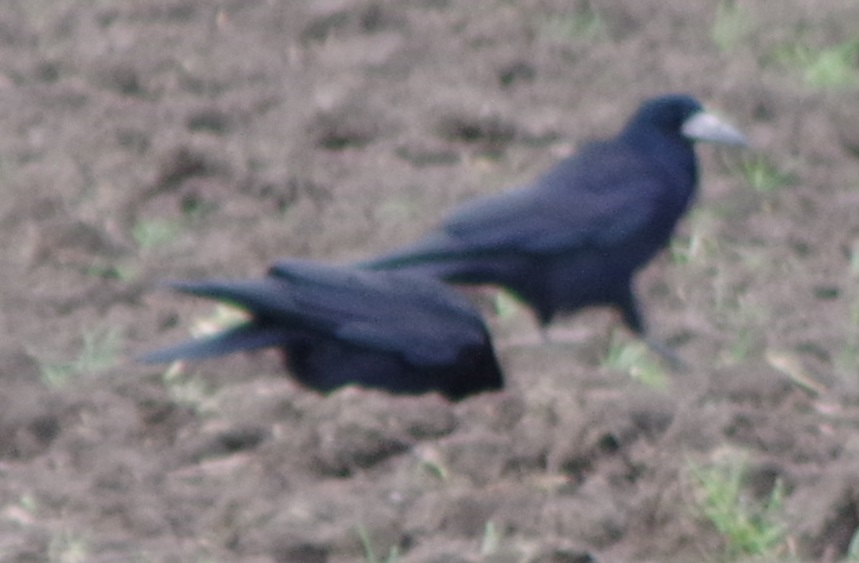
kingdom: Animalia
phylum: Chordata
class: Aves
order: Passeriformes
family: Corvidae
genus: Corvus
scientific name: Corvus frugilegus
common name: Rook
